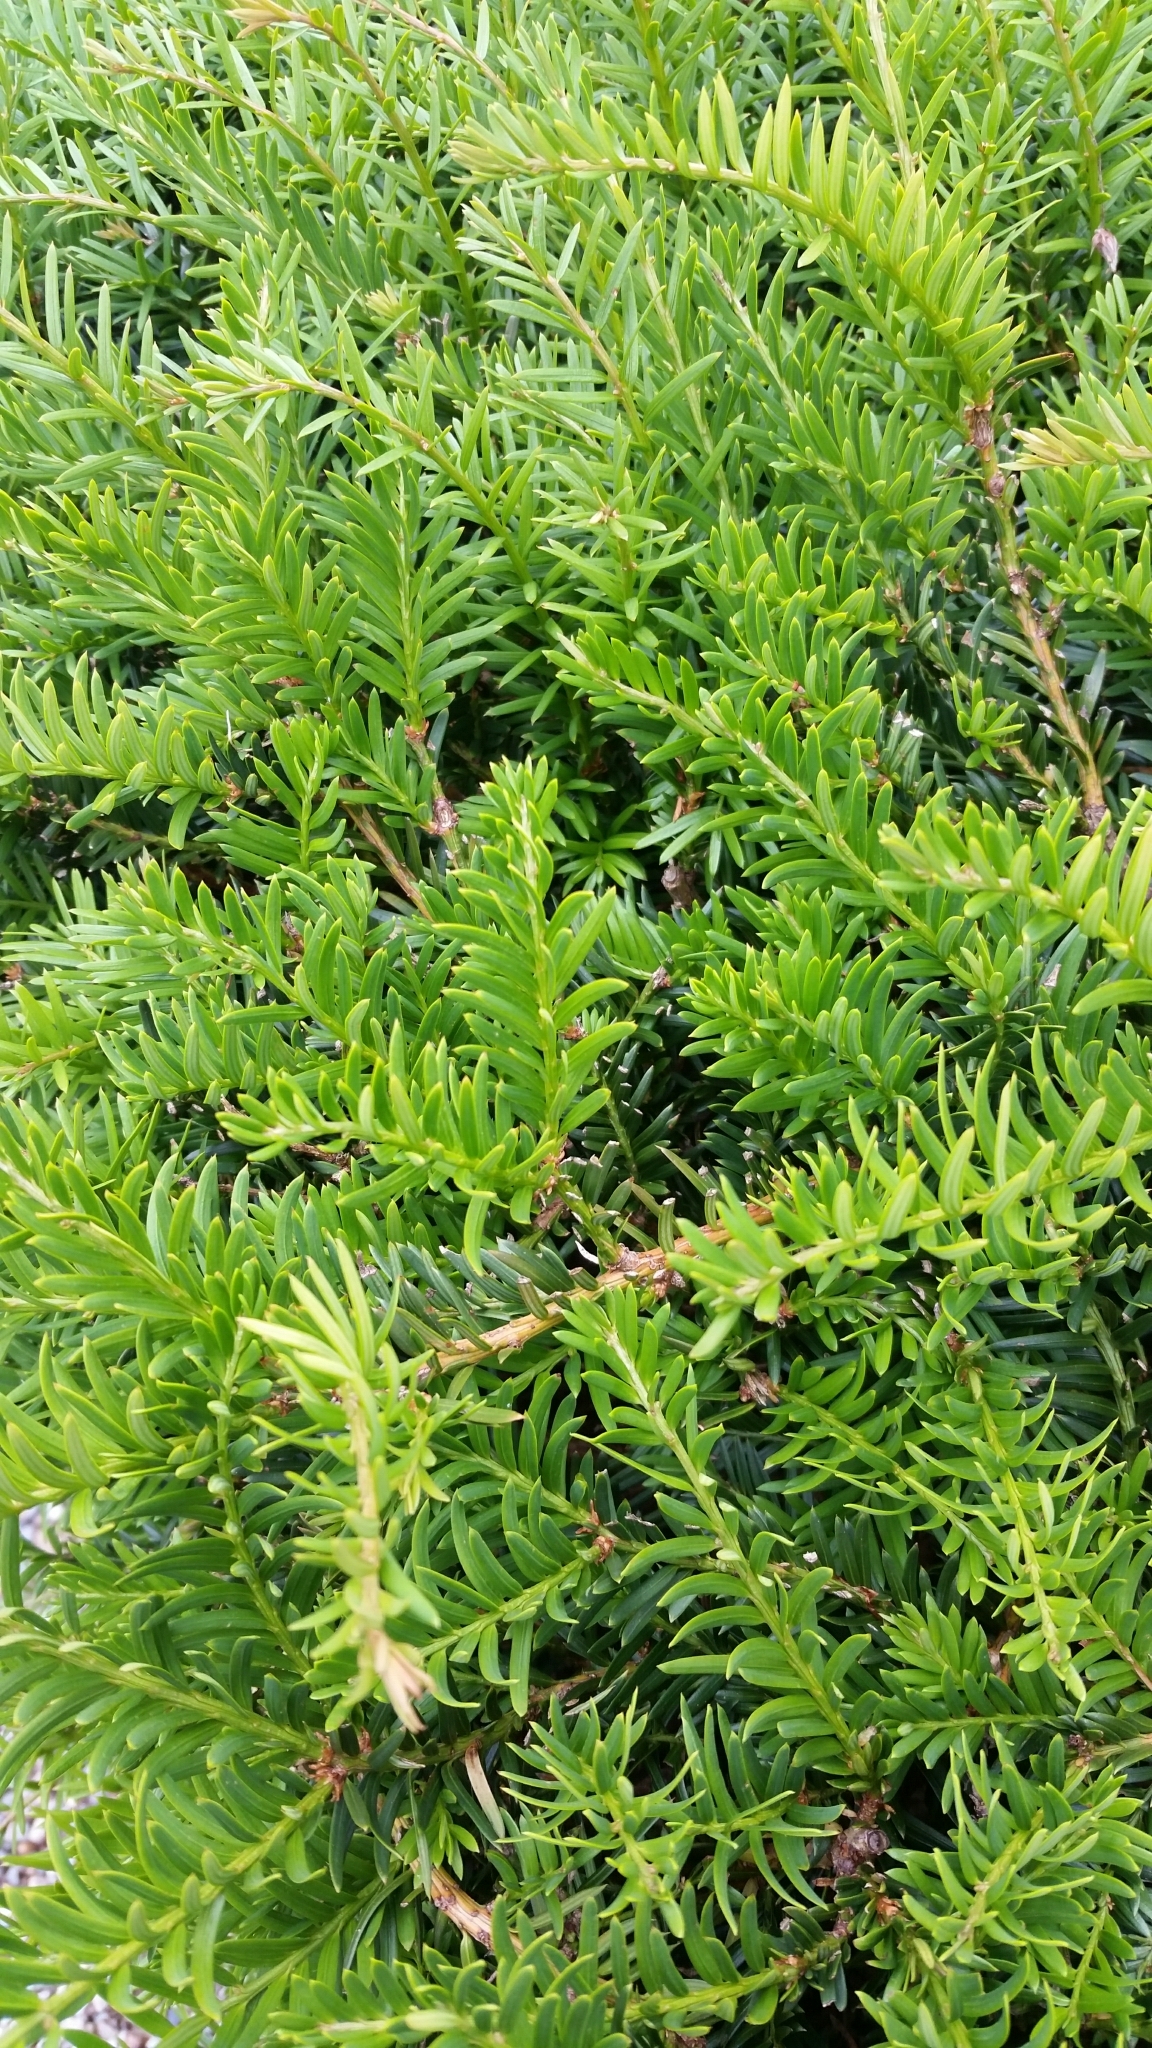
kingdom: Plantae
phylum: Tracheophyta
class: Pinopsida
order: Pinales
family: Taxaceae
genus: Taxus
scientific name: Taxus baccata
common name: Yew
